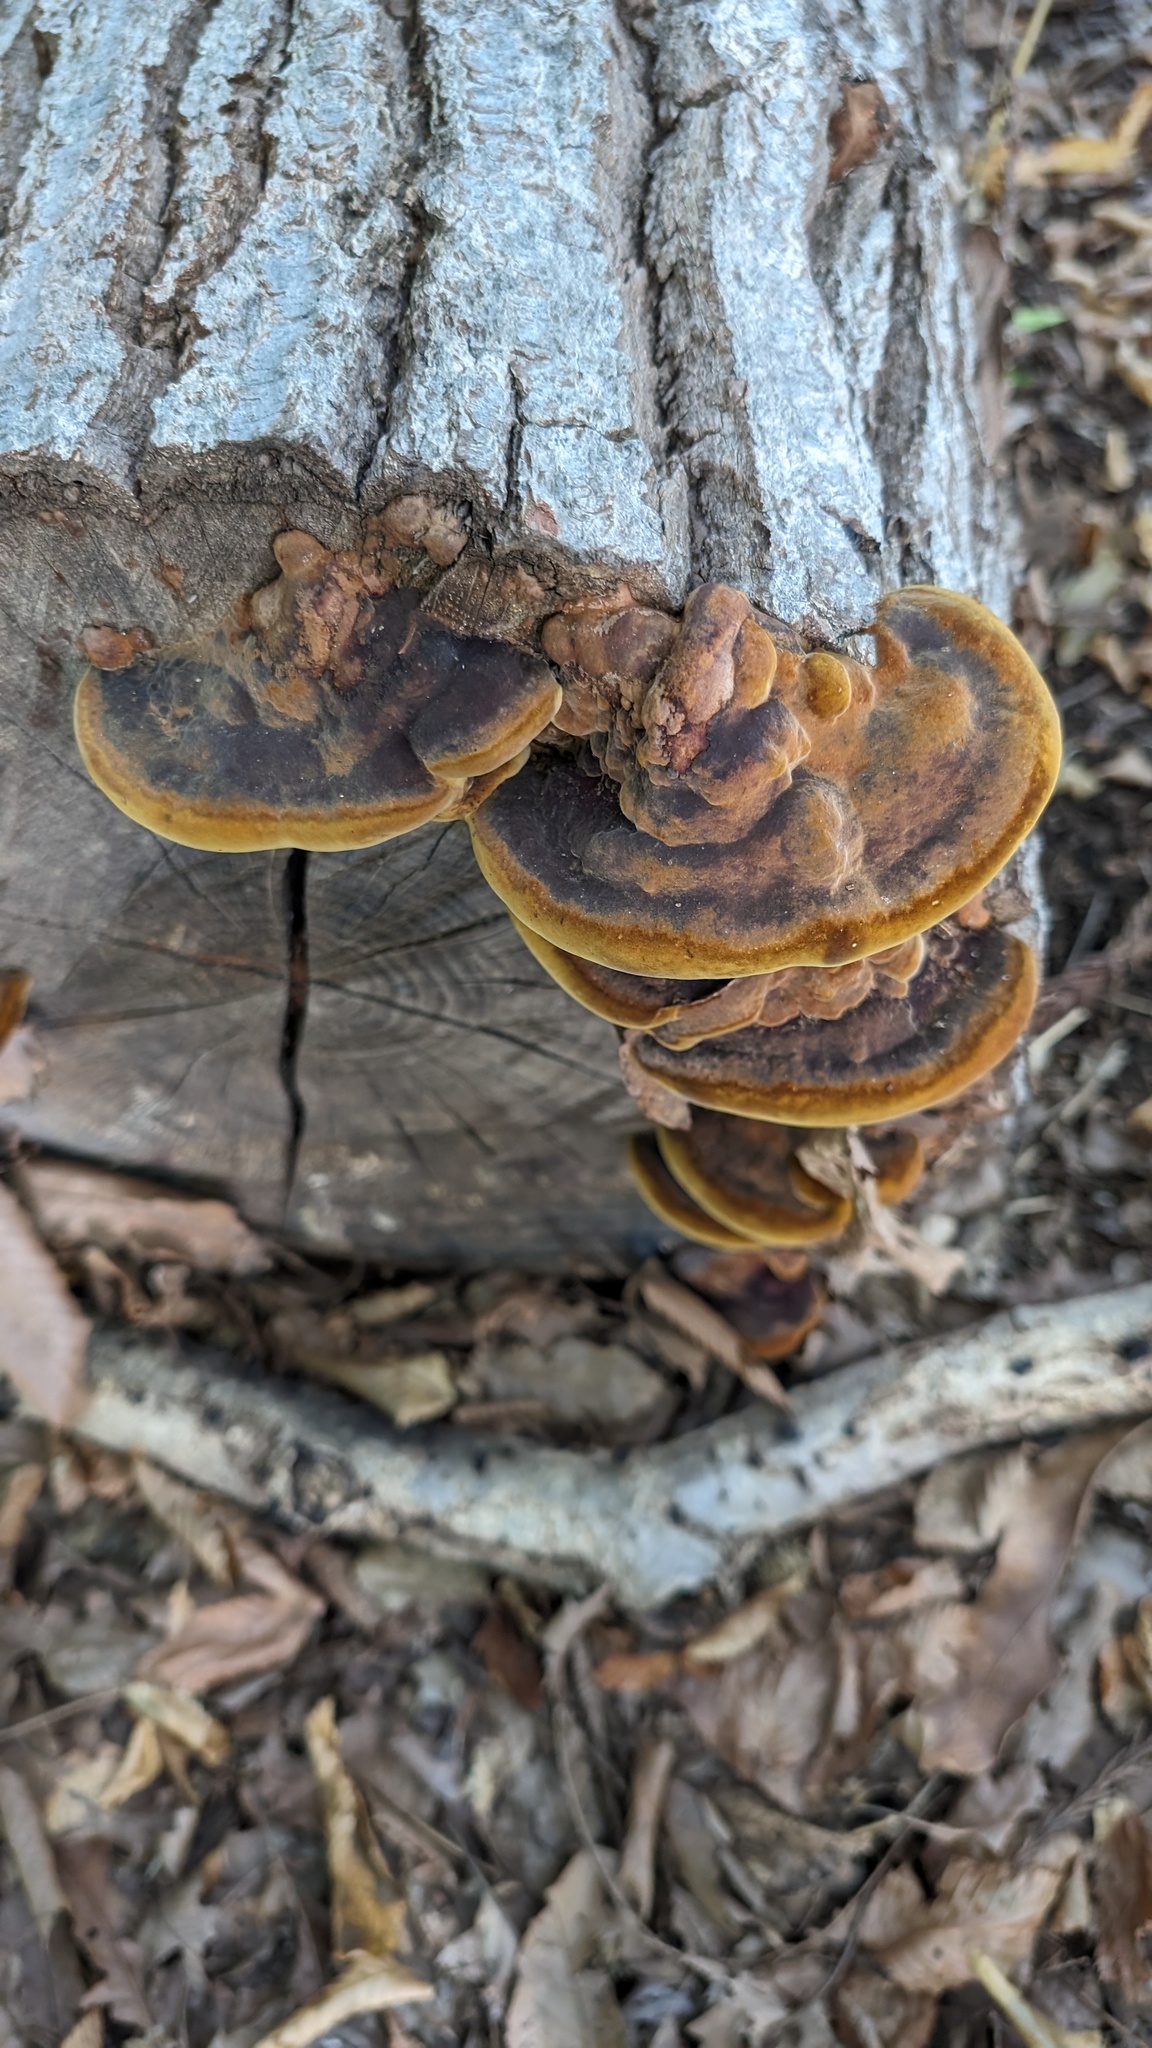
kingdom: Fungi
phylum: Basidiomycota
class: Agaricomycetes
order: Hymenochaetales
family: Hymenochaetaceae
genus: Phellinus
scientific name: Phellinus gilvus
